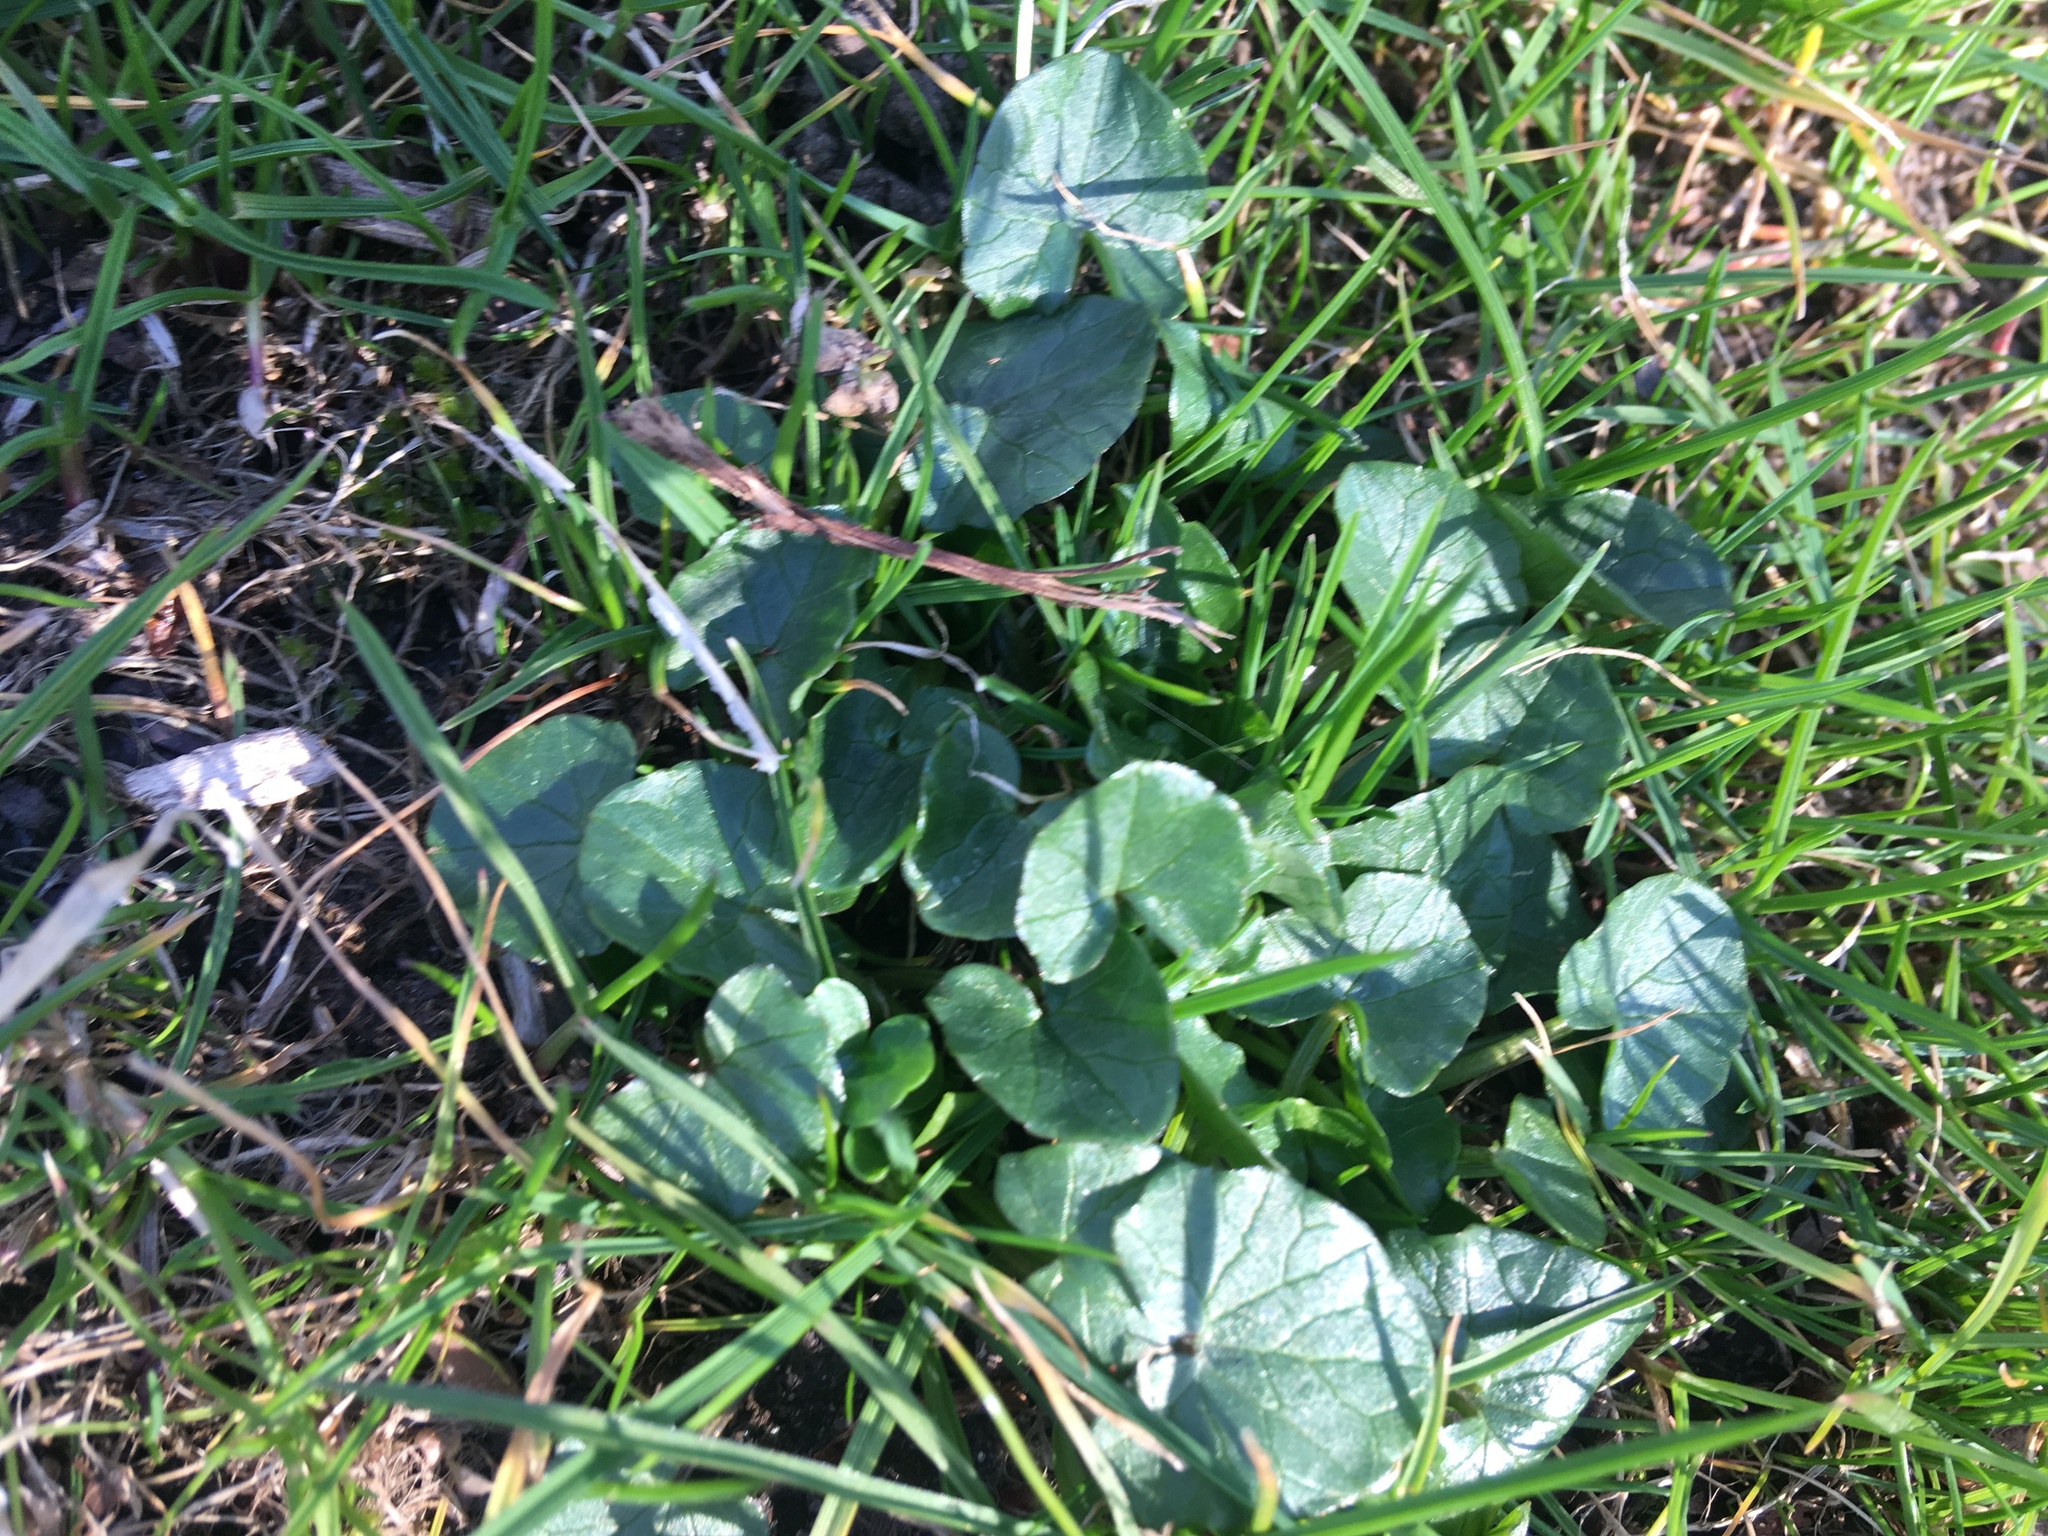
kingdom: Plantae
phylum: Tracheophyta
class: Magnoliopsida
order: Ranunculales
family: Ranunculaceae
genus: Ficaria
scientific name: Ficaria verna
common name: Lesser celandine
